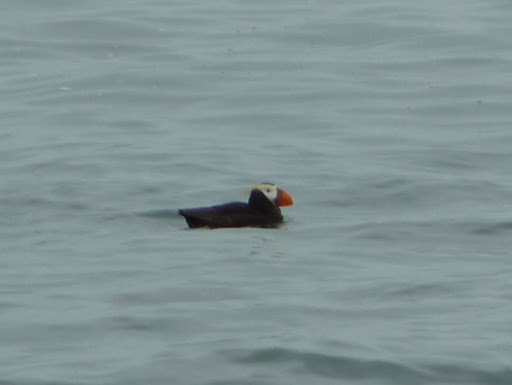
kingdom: Animalia
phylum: Chordata
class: Aves
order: Charadriiformes
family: Alcidae
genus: Fratercula
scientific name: Fratercula cirrhata
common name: Tufted puffin
